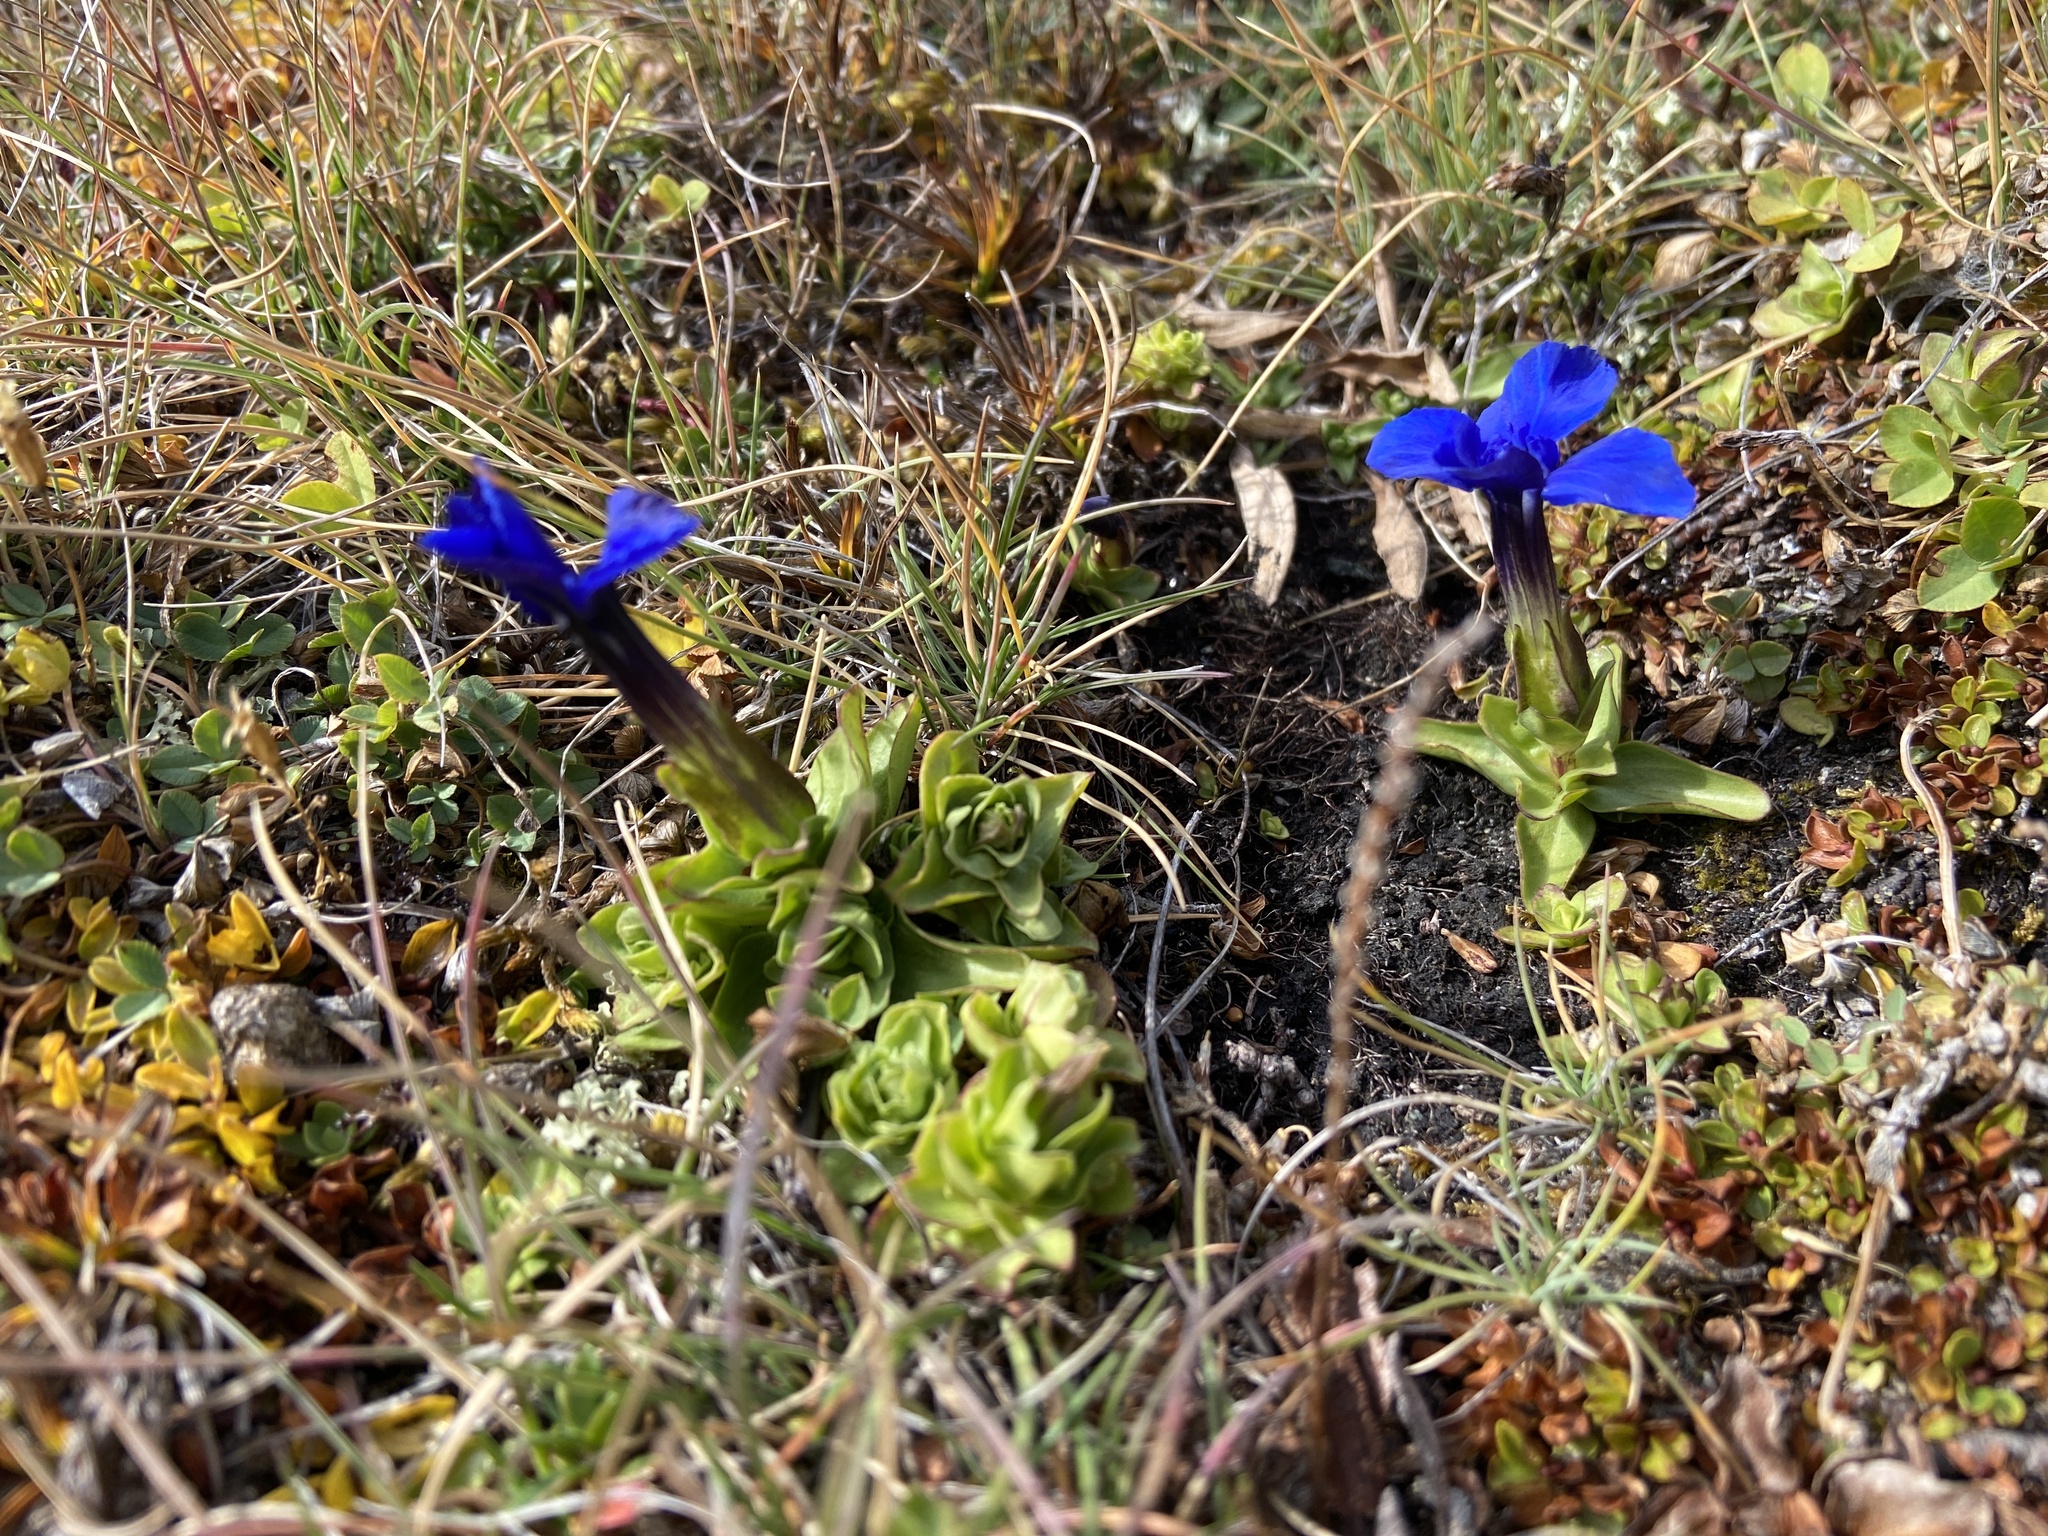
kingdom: Plantae
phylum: Tracheophyta
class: Magnoliopsida
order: Gentianales
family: Gentianaceae
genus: Gentiana
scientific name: Gentiana verna
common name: Spring gentian
